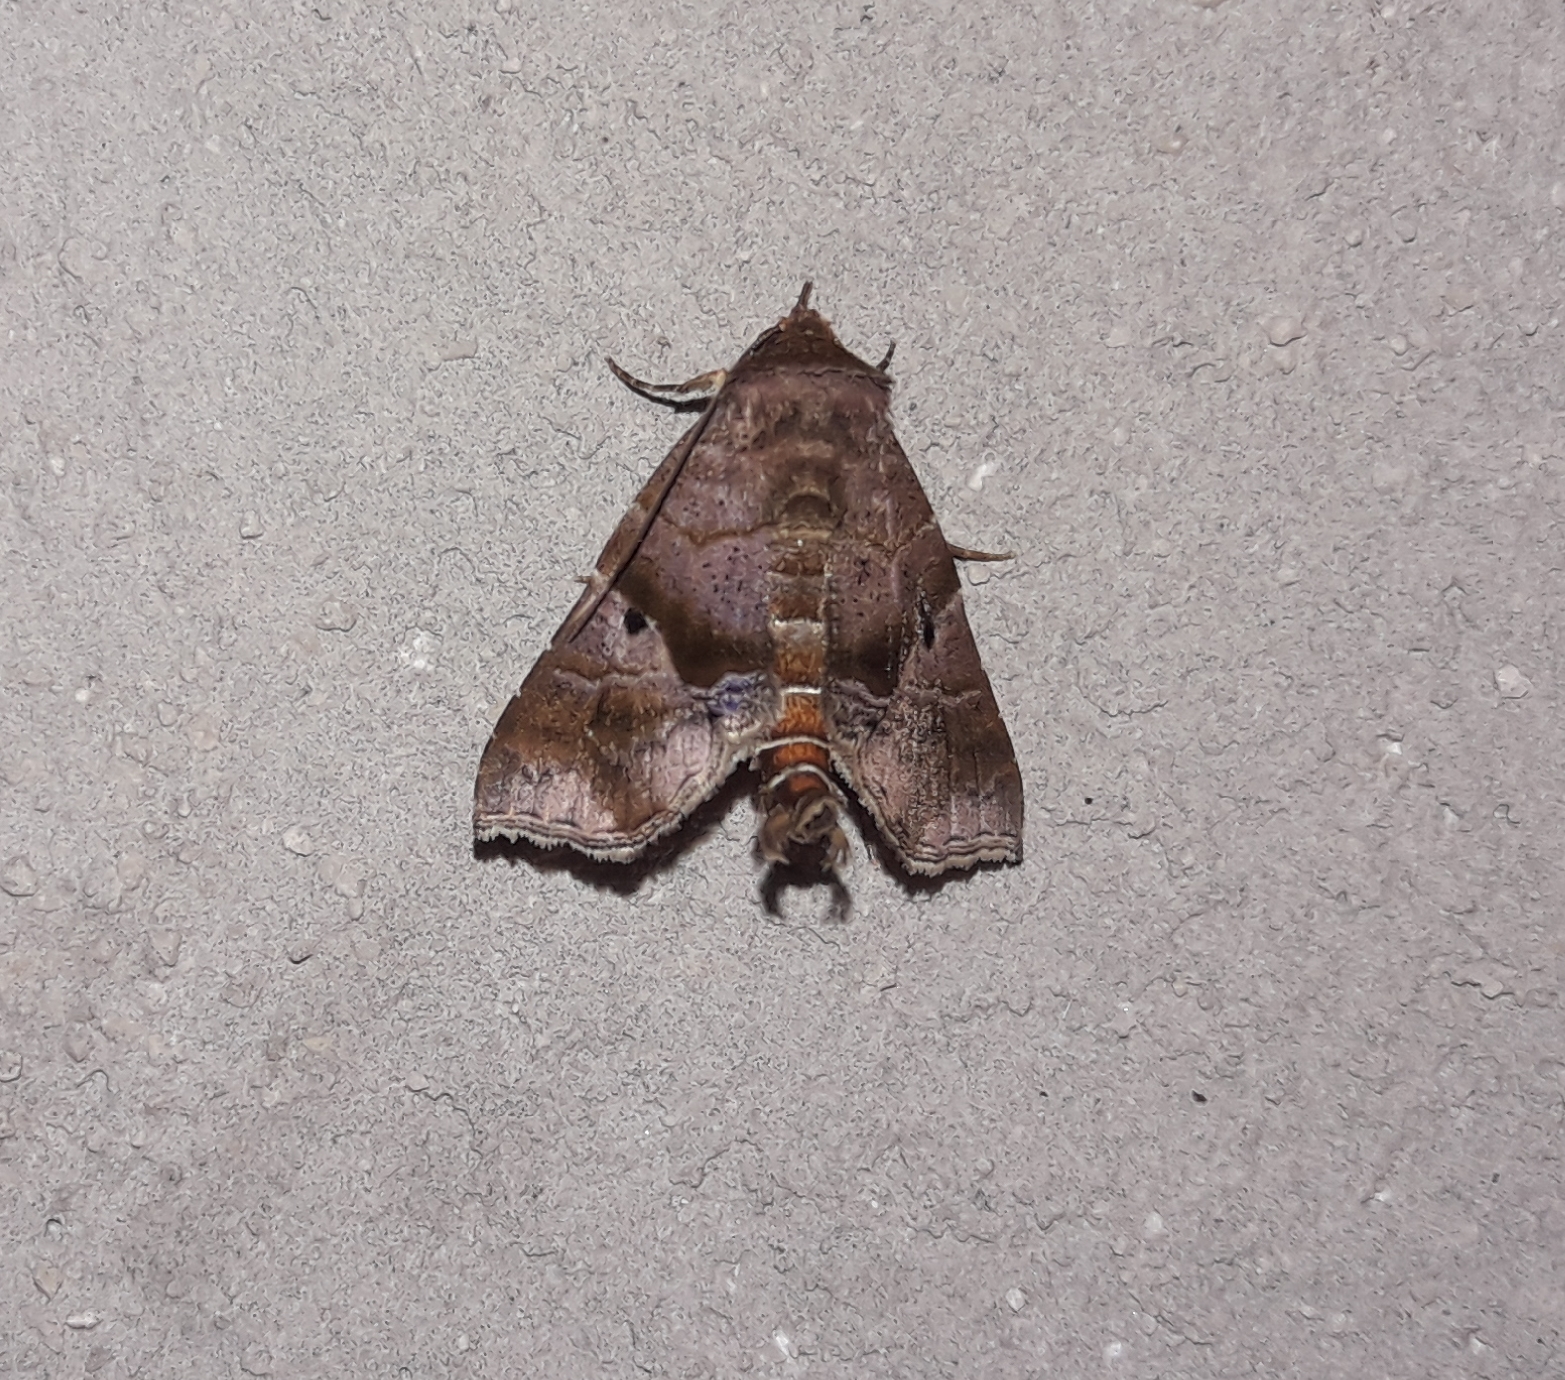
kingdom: Animalia
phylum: Arthropoda
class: Insecta
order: Lepidoptera
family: Erebidae
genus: Radara
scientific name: Radara nealcesalis
